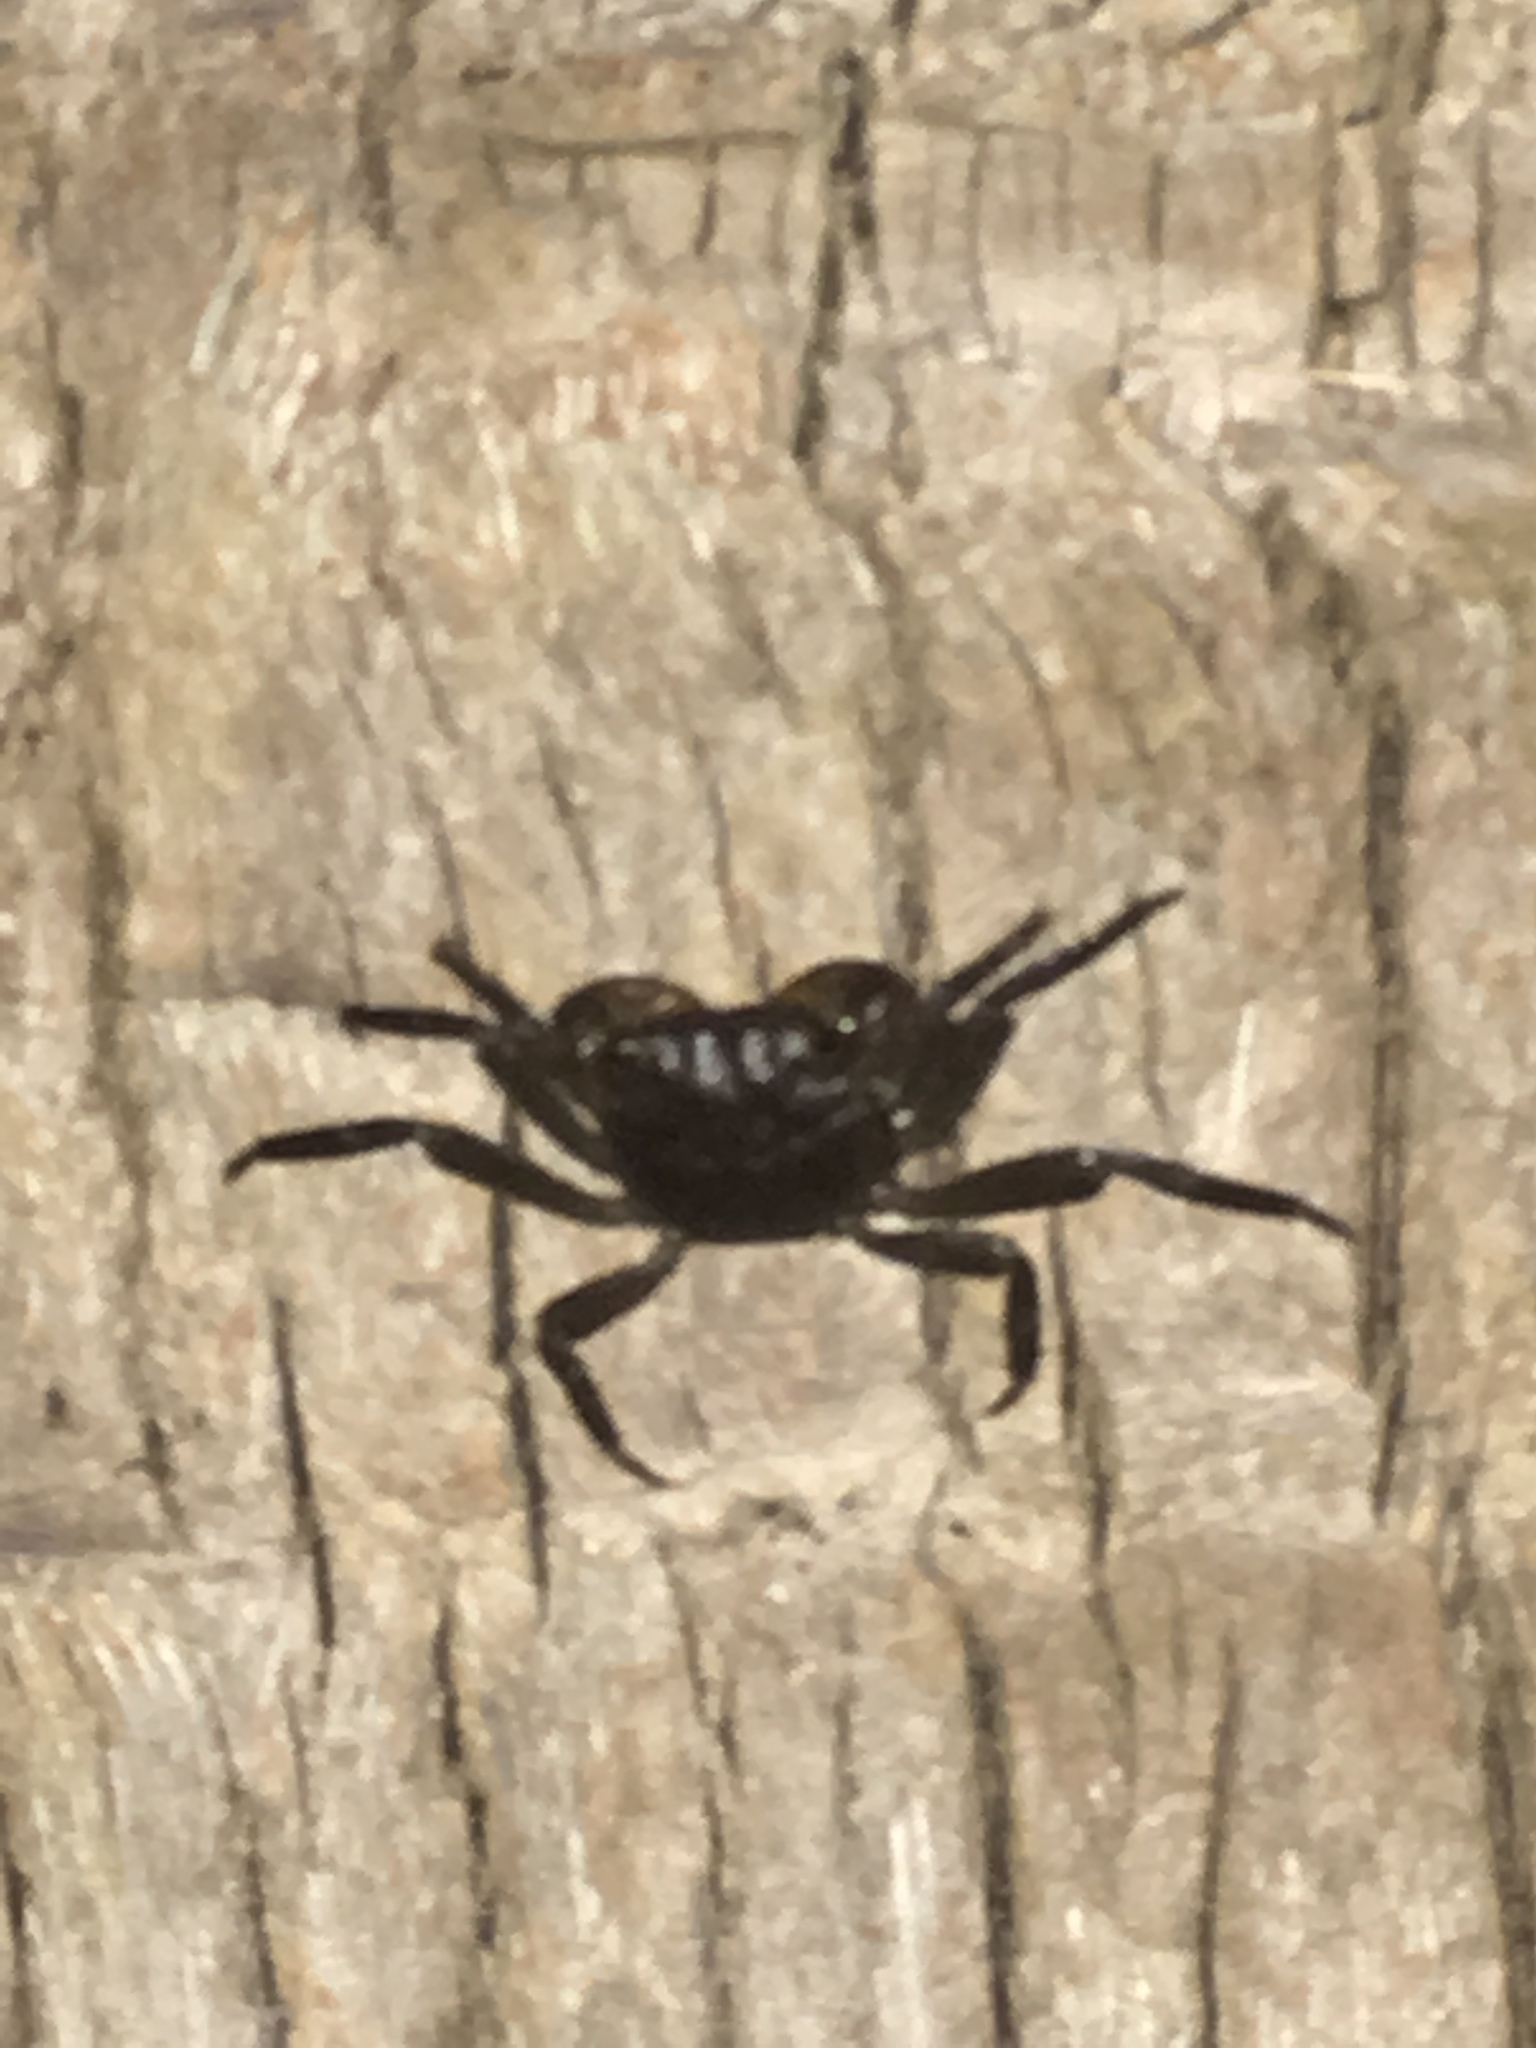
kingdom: Animalia
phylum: Arthropoda
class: Malacostraca
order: Decapoda
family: Sesarmidae
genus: Armases
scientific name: Armases cinereum
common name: Squareback marsh crab
